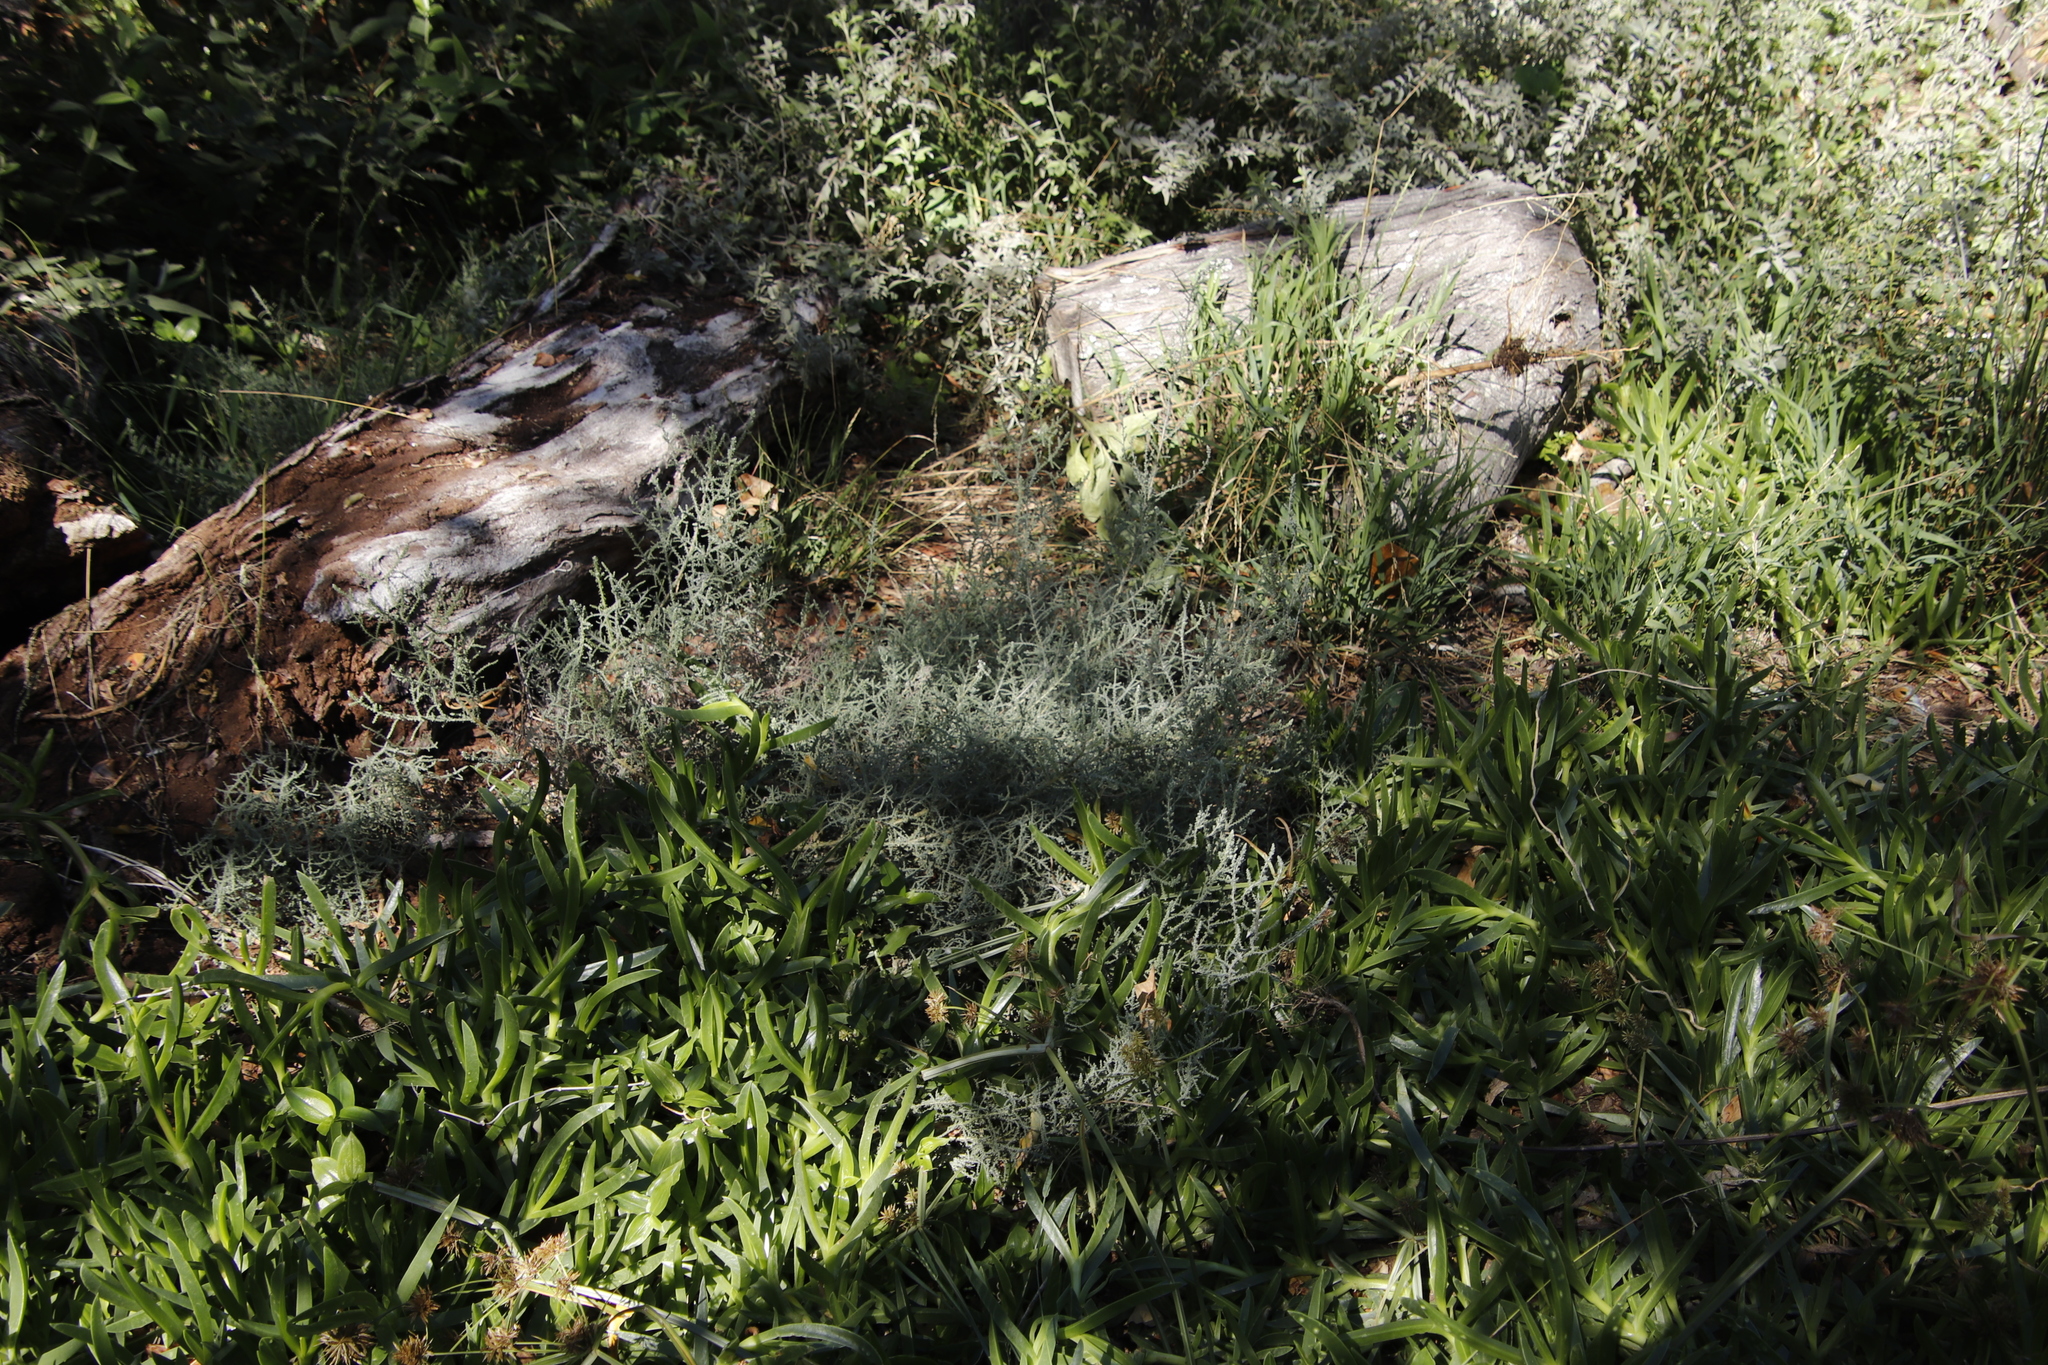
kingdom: Plantae
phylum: Tracheophyta
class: Magnoliopsida
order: Asterales
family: Asteraceae
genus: Seriphium
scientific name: Seriphium plumosum
